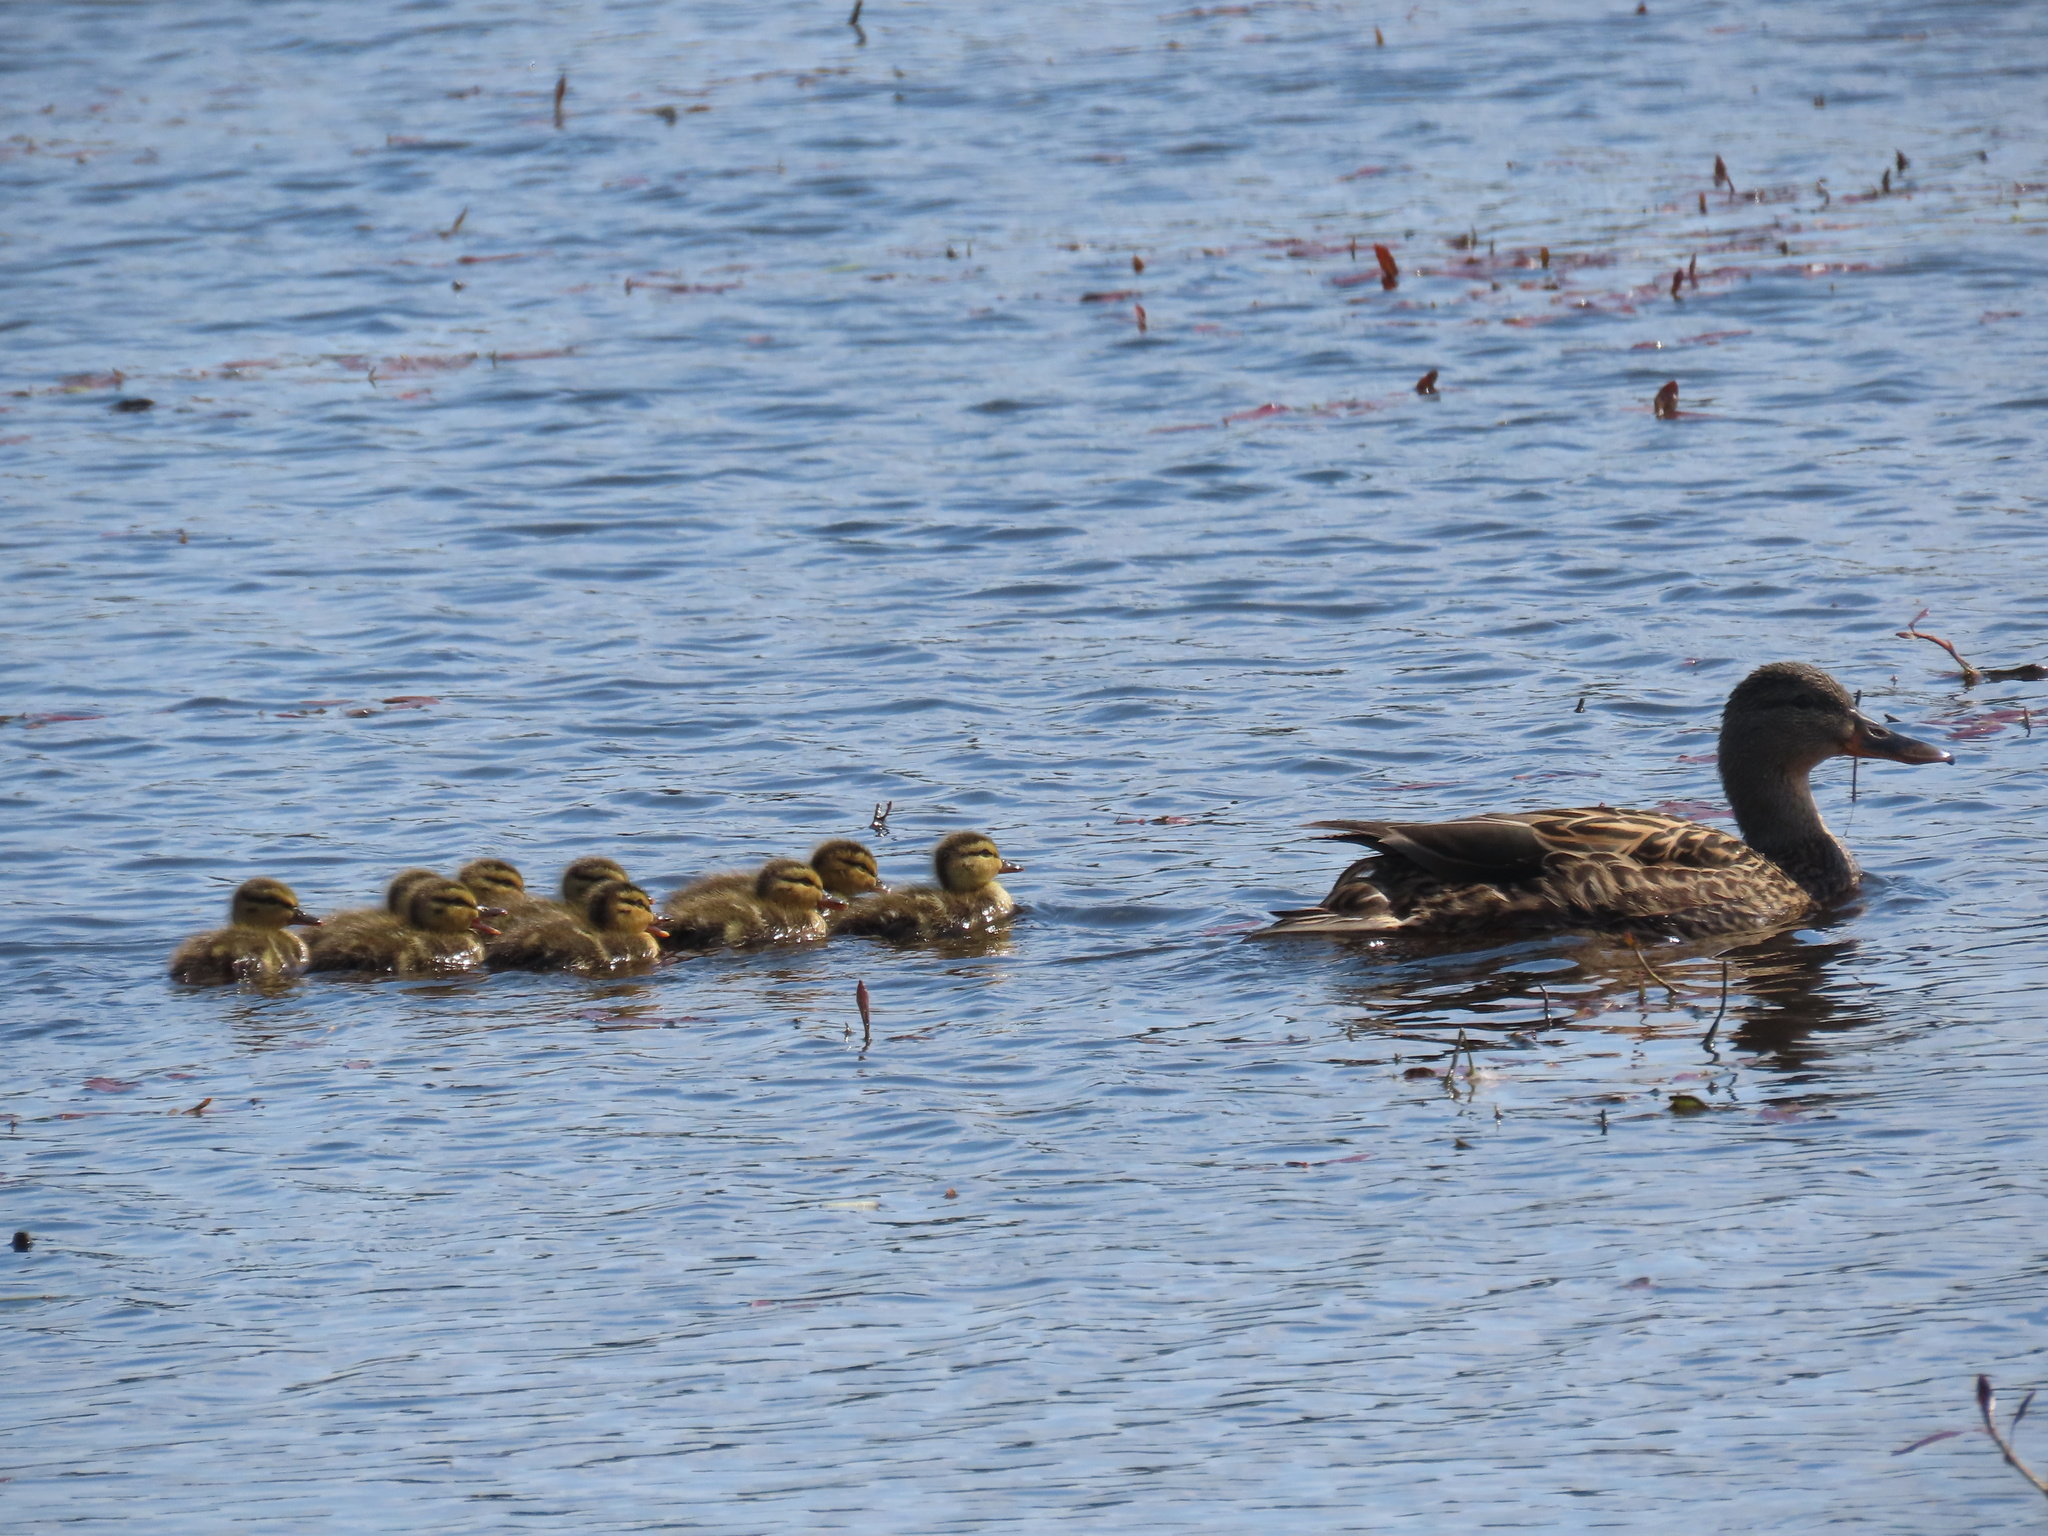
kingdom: Animalia
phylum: Chordata
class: Aves
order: Anseriformes
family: Anatidae
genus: Anas
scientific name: Anas platyrhynchos
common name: Mallard
